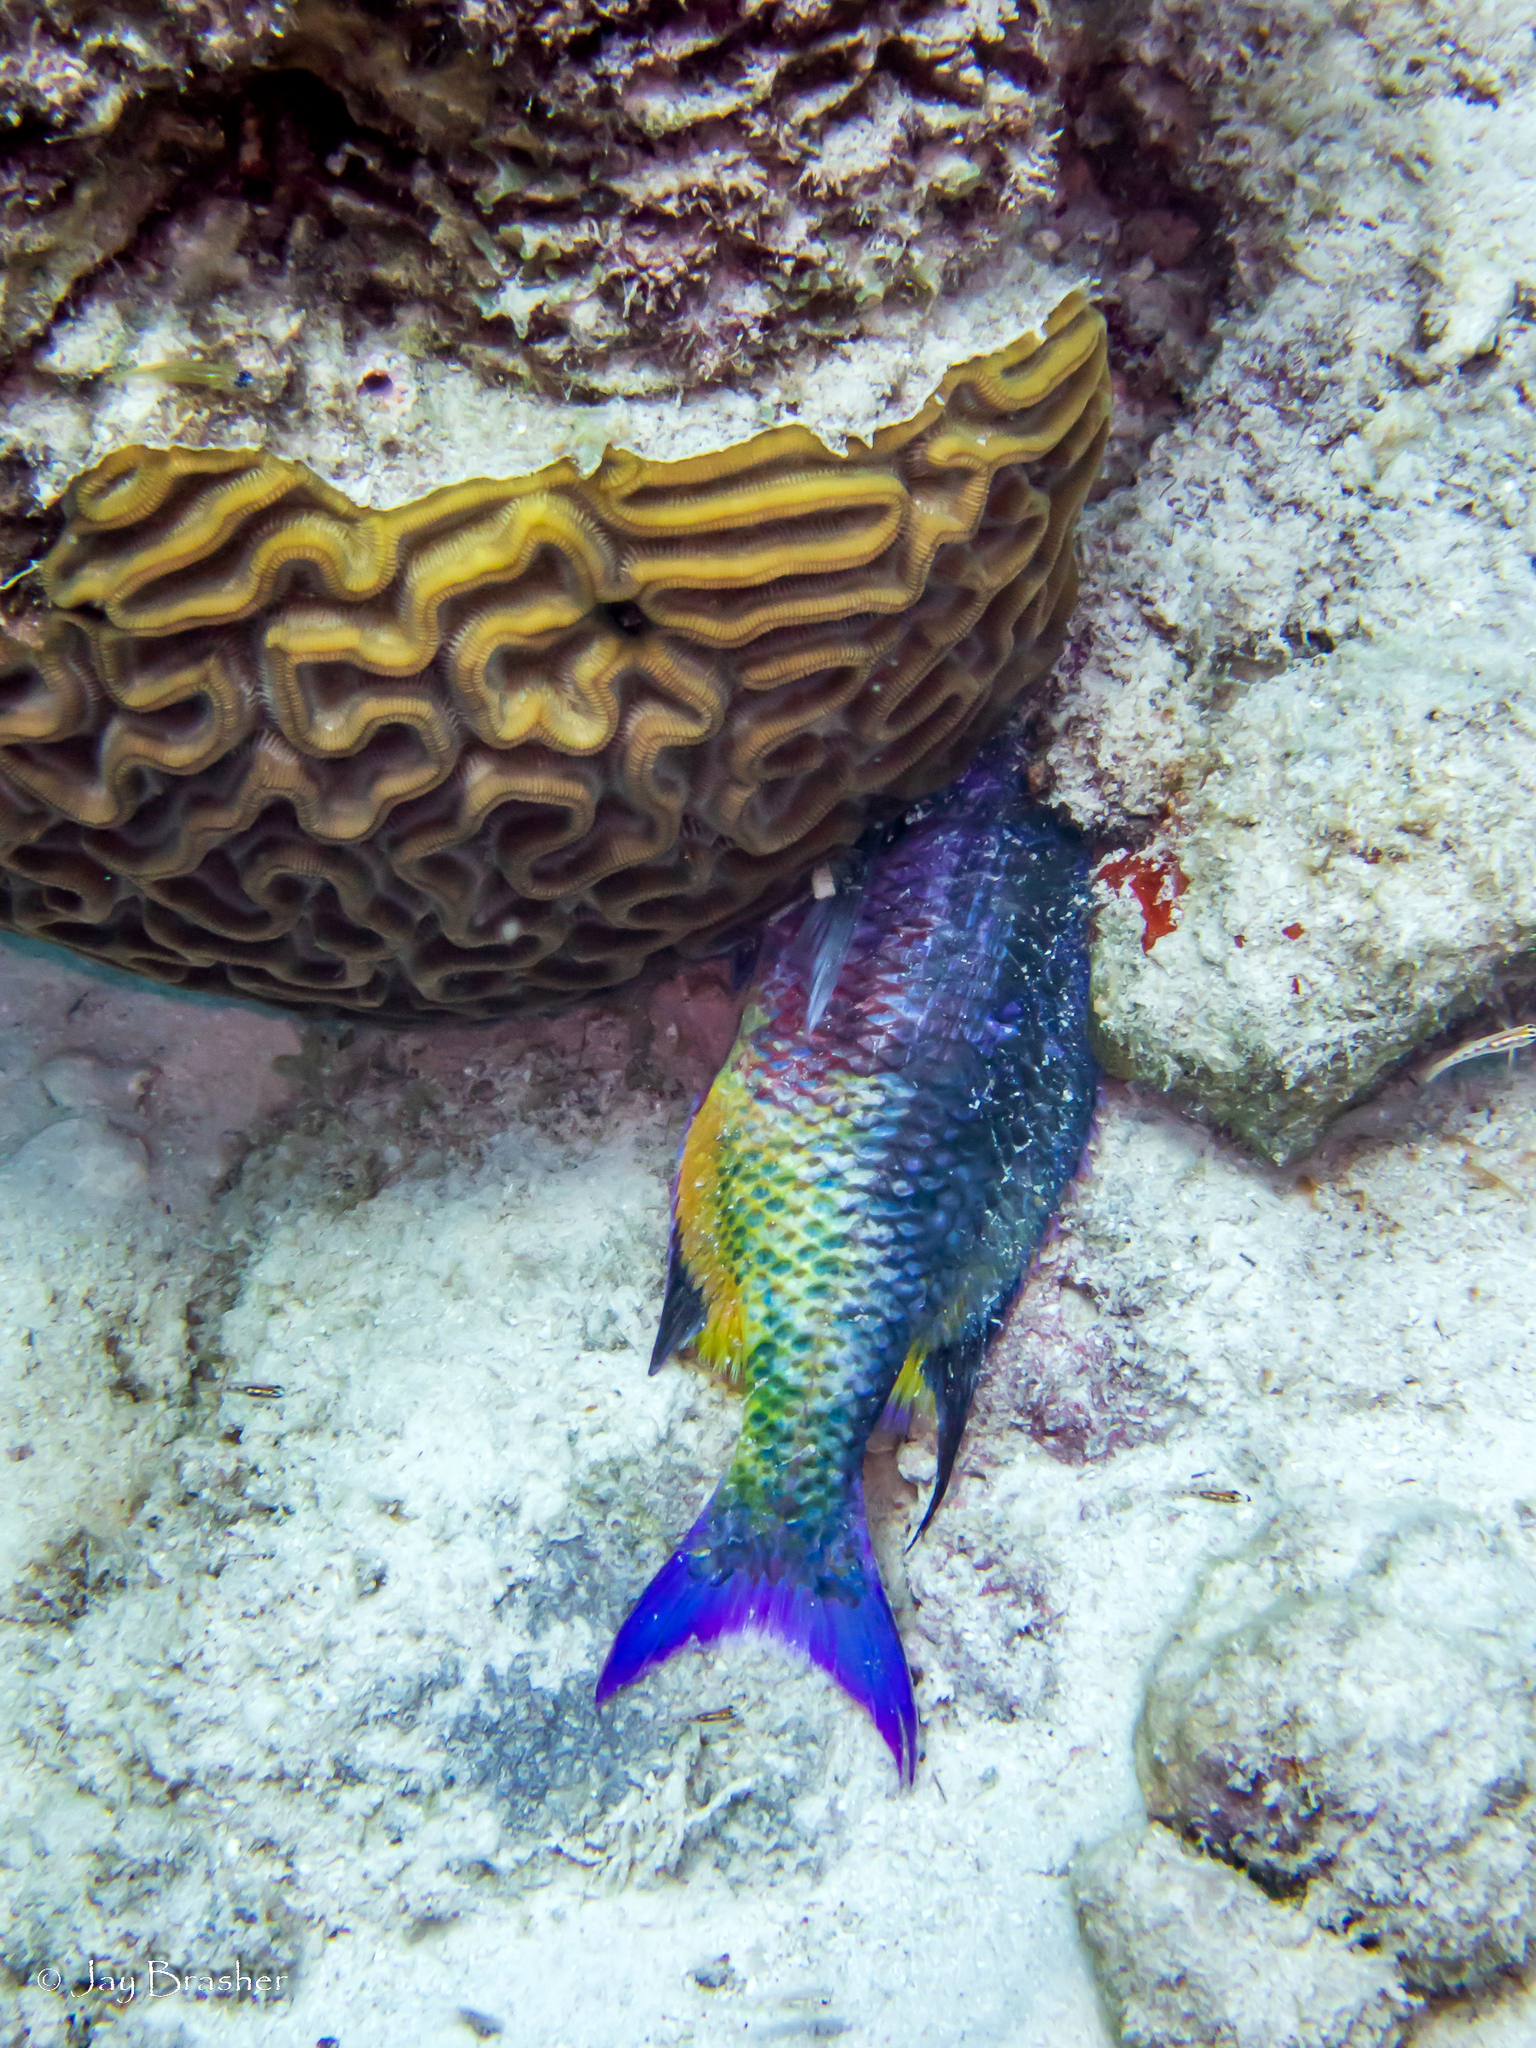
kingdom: Animalia
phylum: Chordata
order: Perciformes
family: Labridae
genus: Bodianus
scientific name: Bodianus
